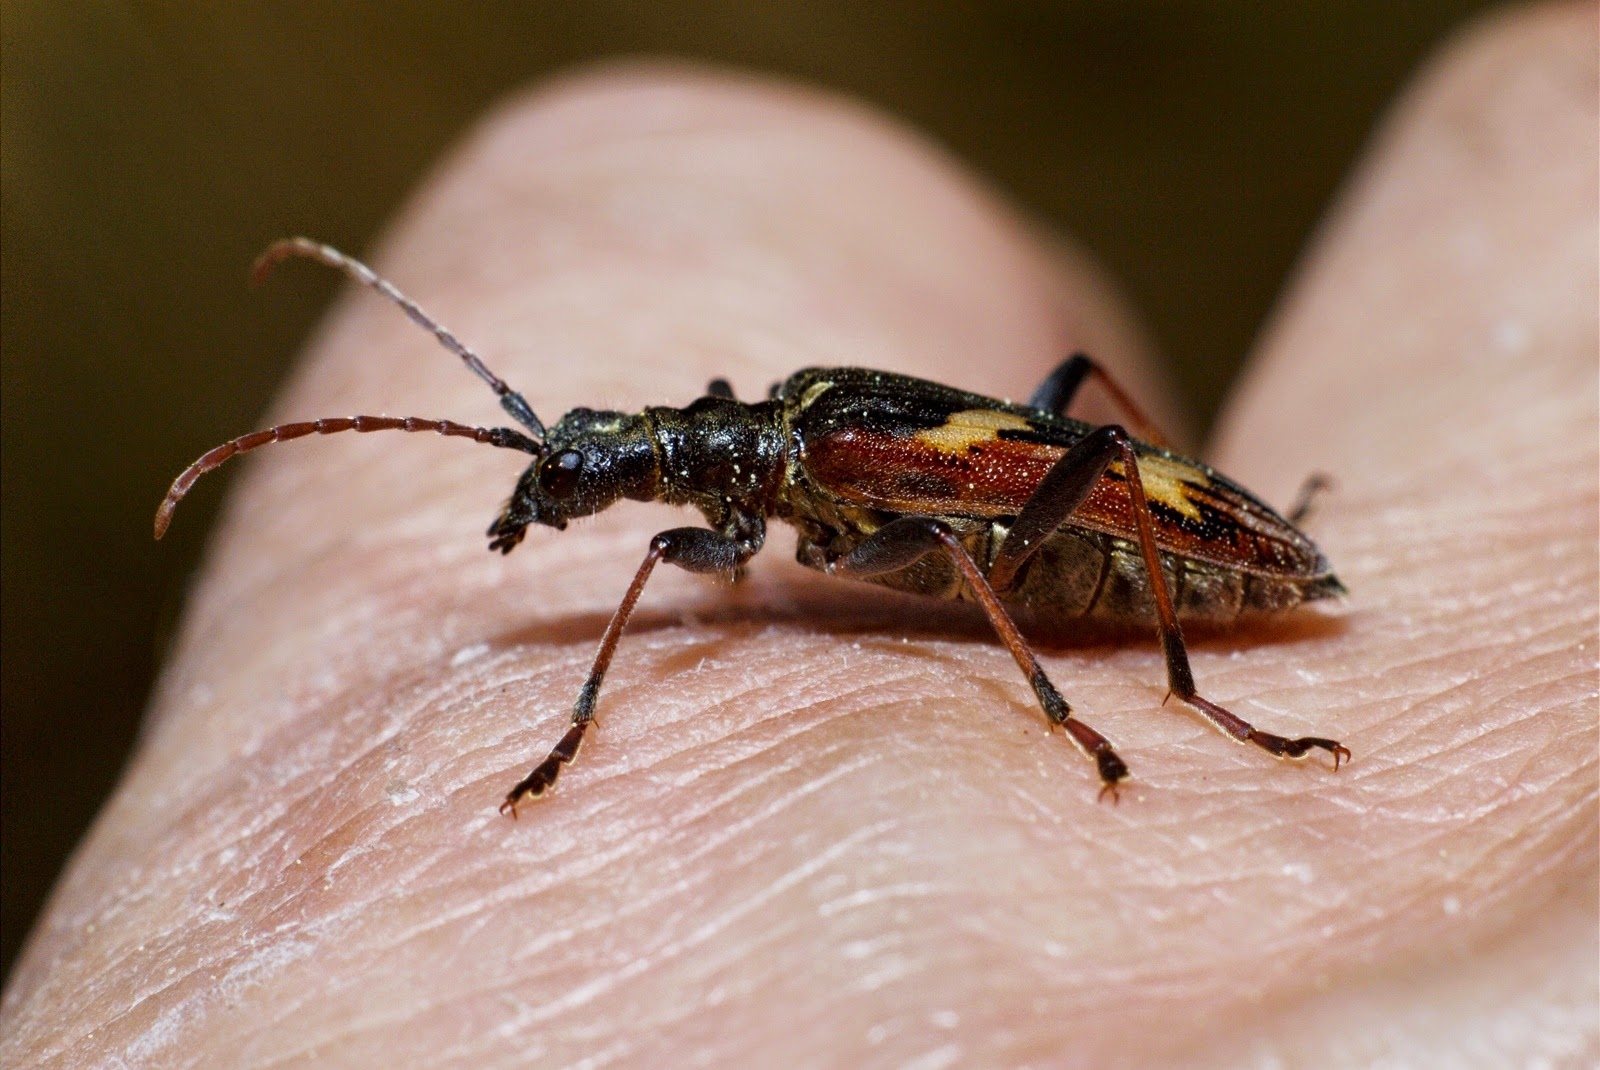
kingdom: Animalia
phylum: Arthropoda
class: Insecta
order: Coleoptera
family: Cerambycidae
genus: Rhagium
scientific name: Rhagium bifasciatum
